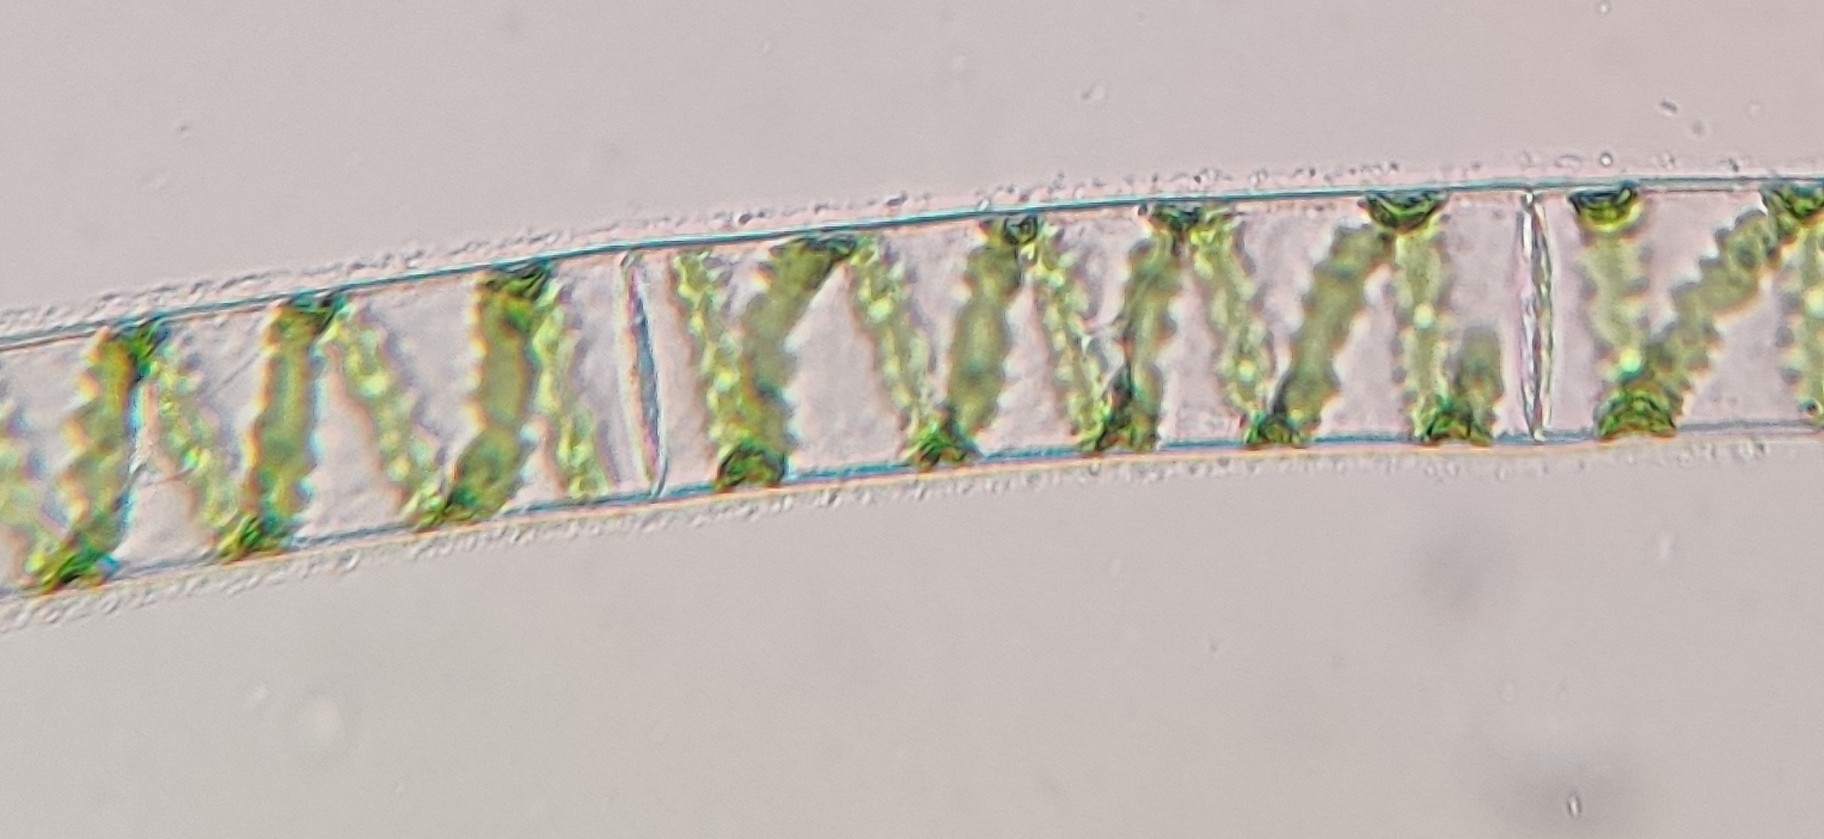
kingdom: Plantae
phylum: Charophyta
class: Zygnematophyceae
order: Zygnematales
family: Zygnemataceae
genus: Spirogyra
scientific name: Spirogyra
